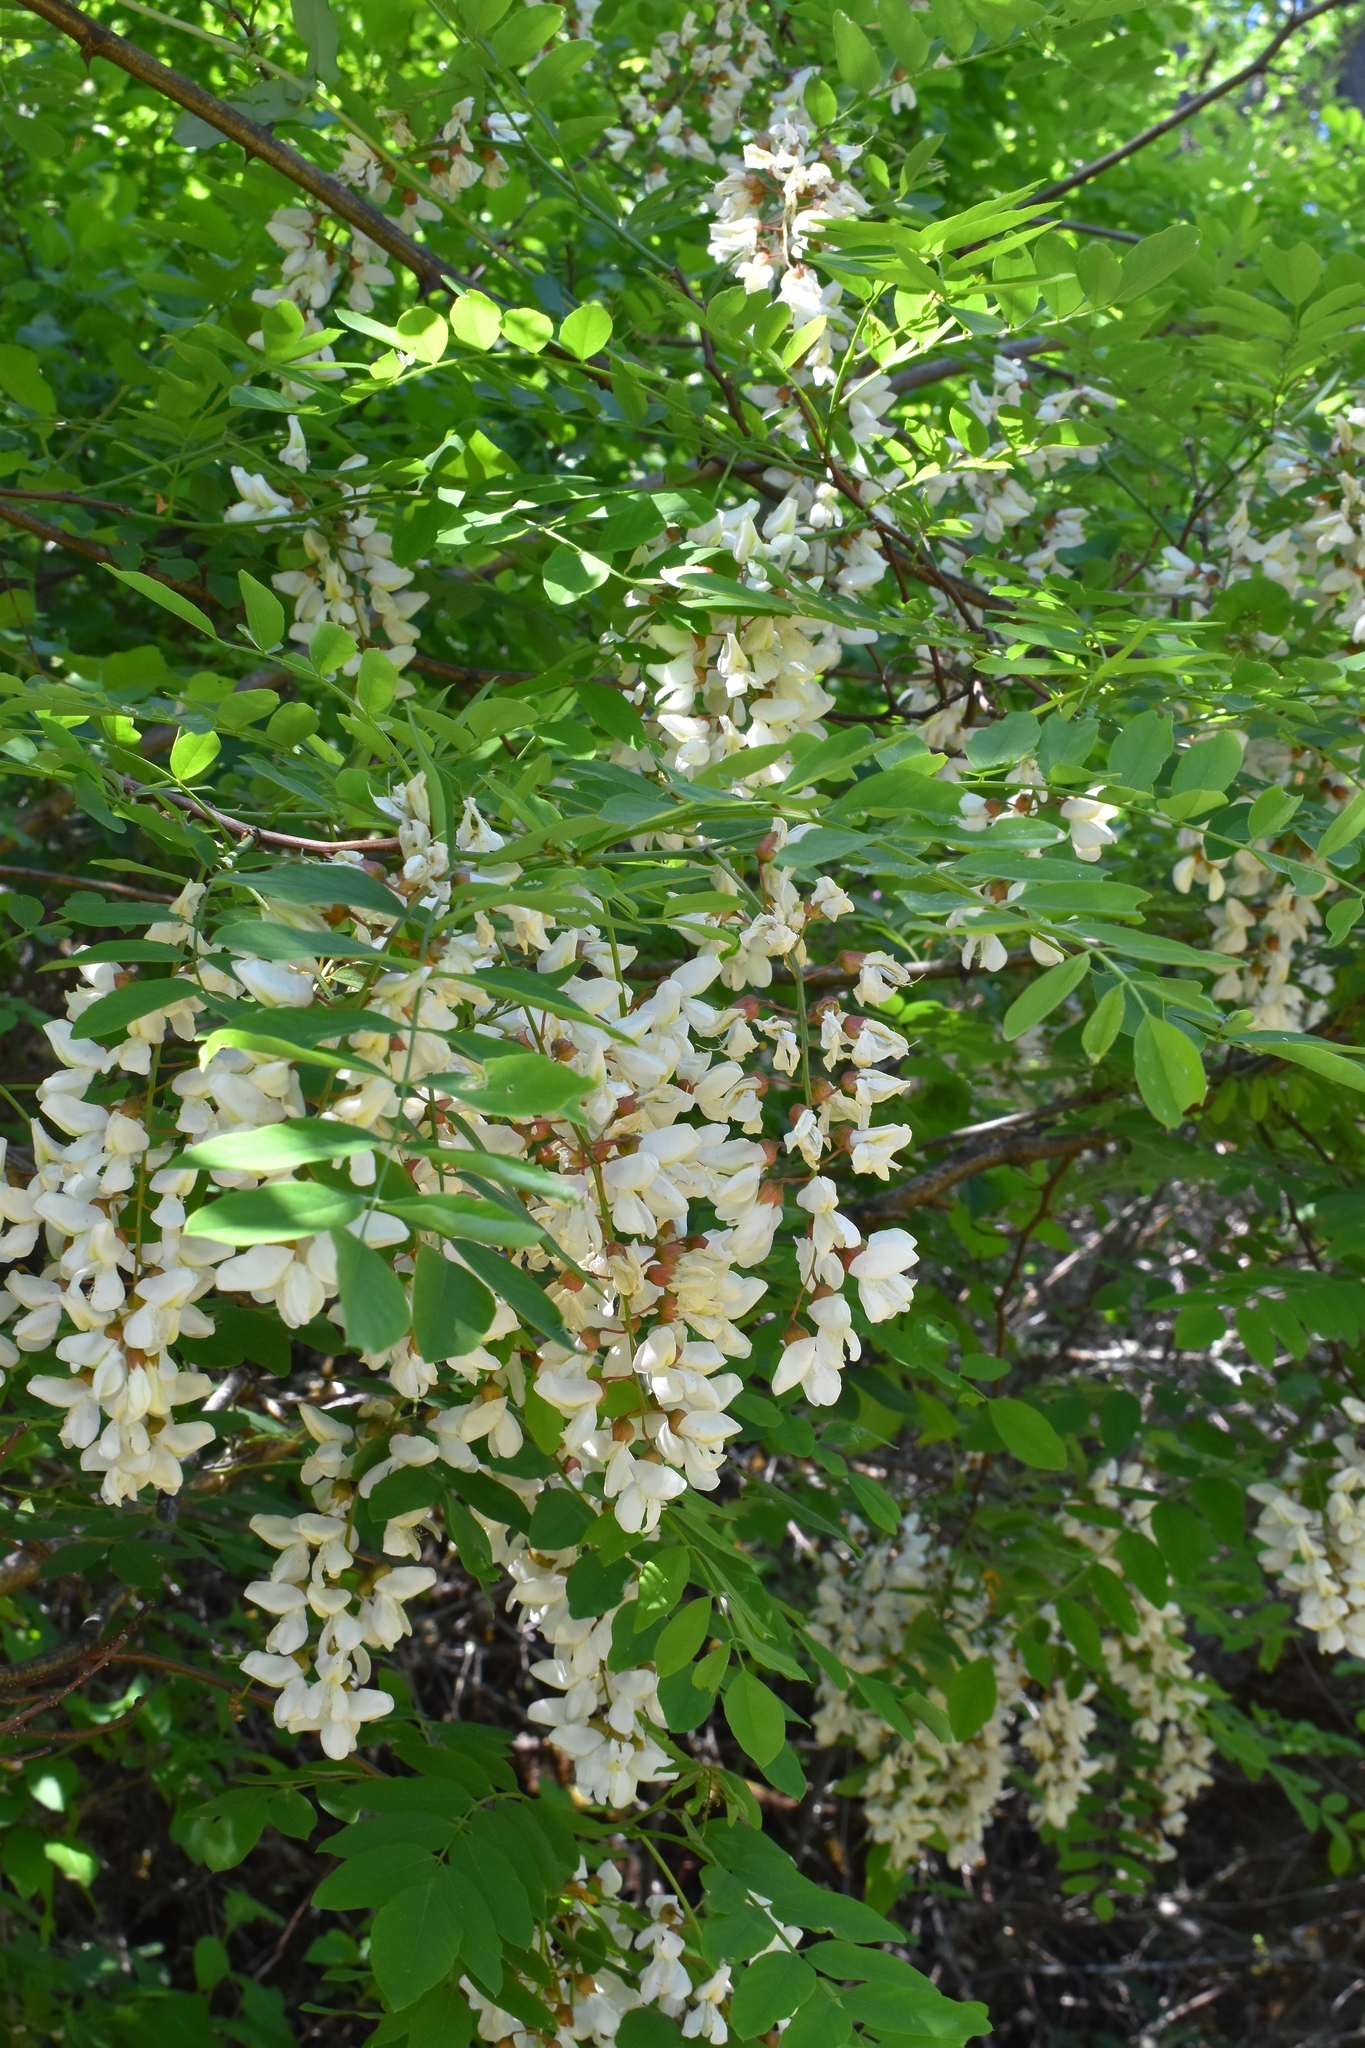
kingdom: Plantae
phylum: Tracheophyta
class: Magnoliopsida
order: Fabales
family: Fabaceae
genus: Robinia
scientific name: Robinia pseudoacacia
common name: Black locust
